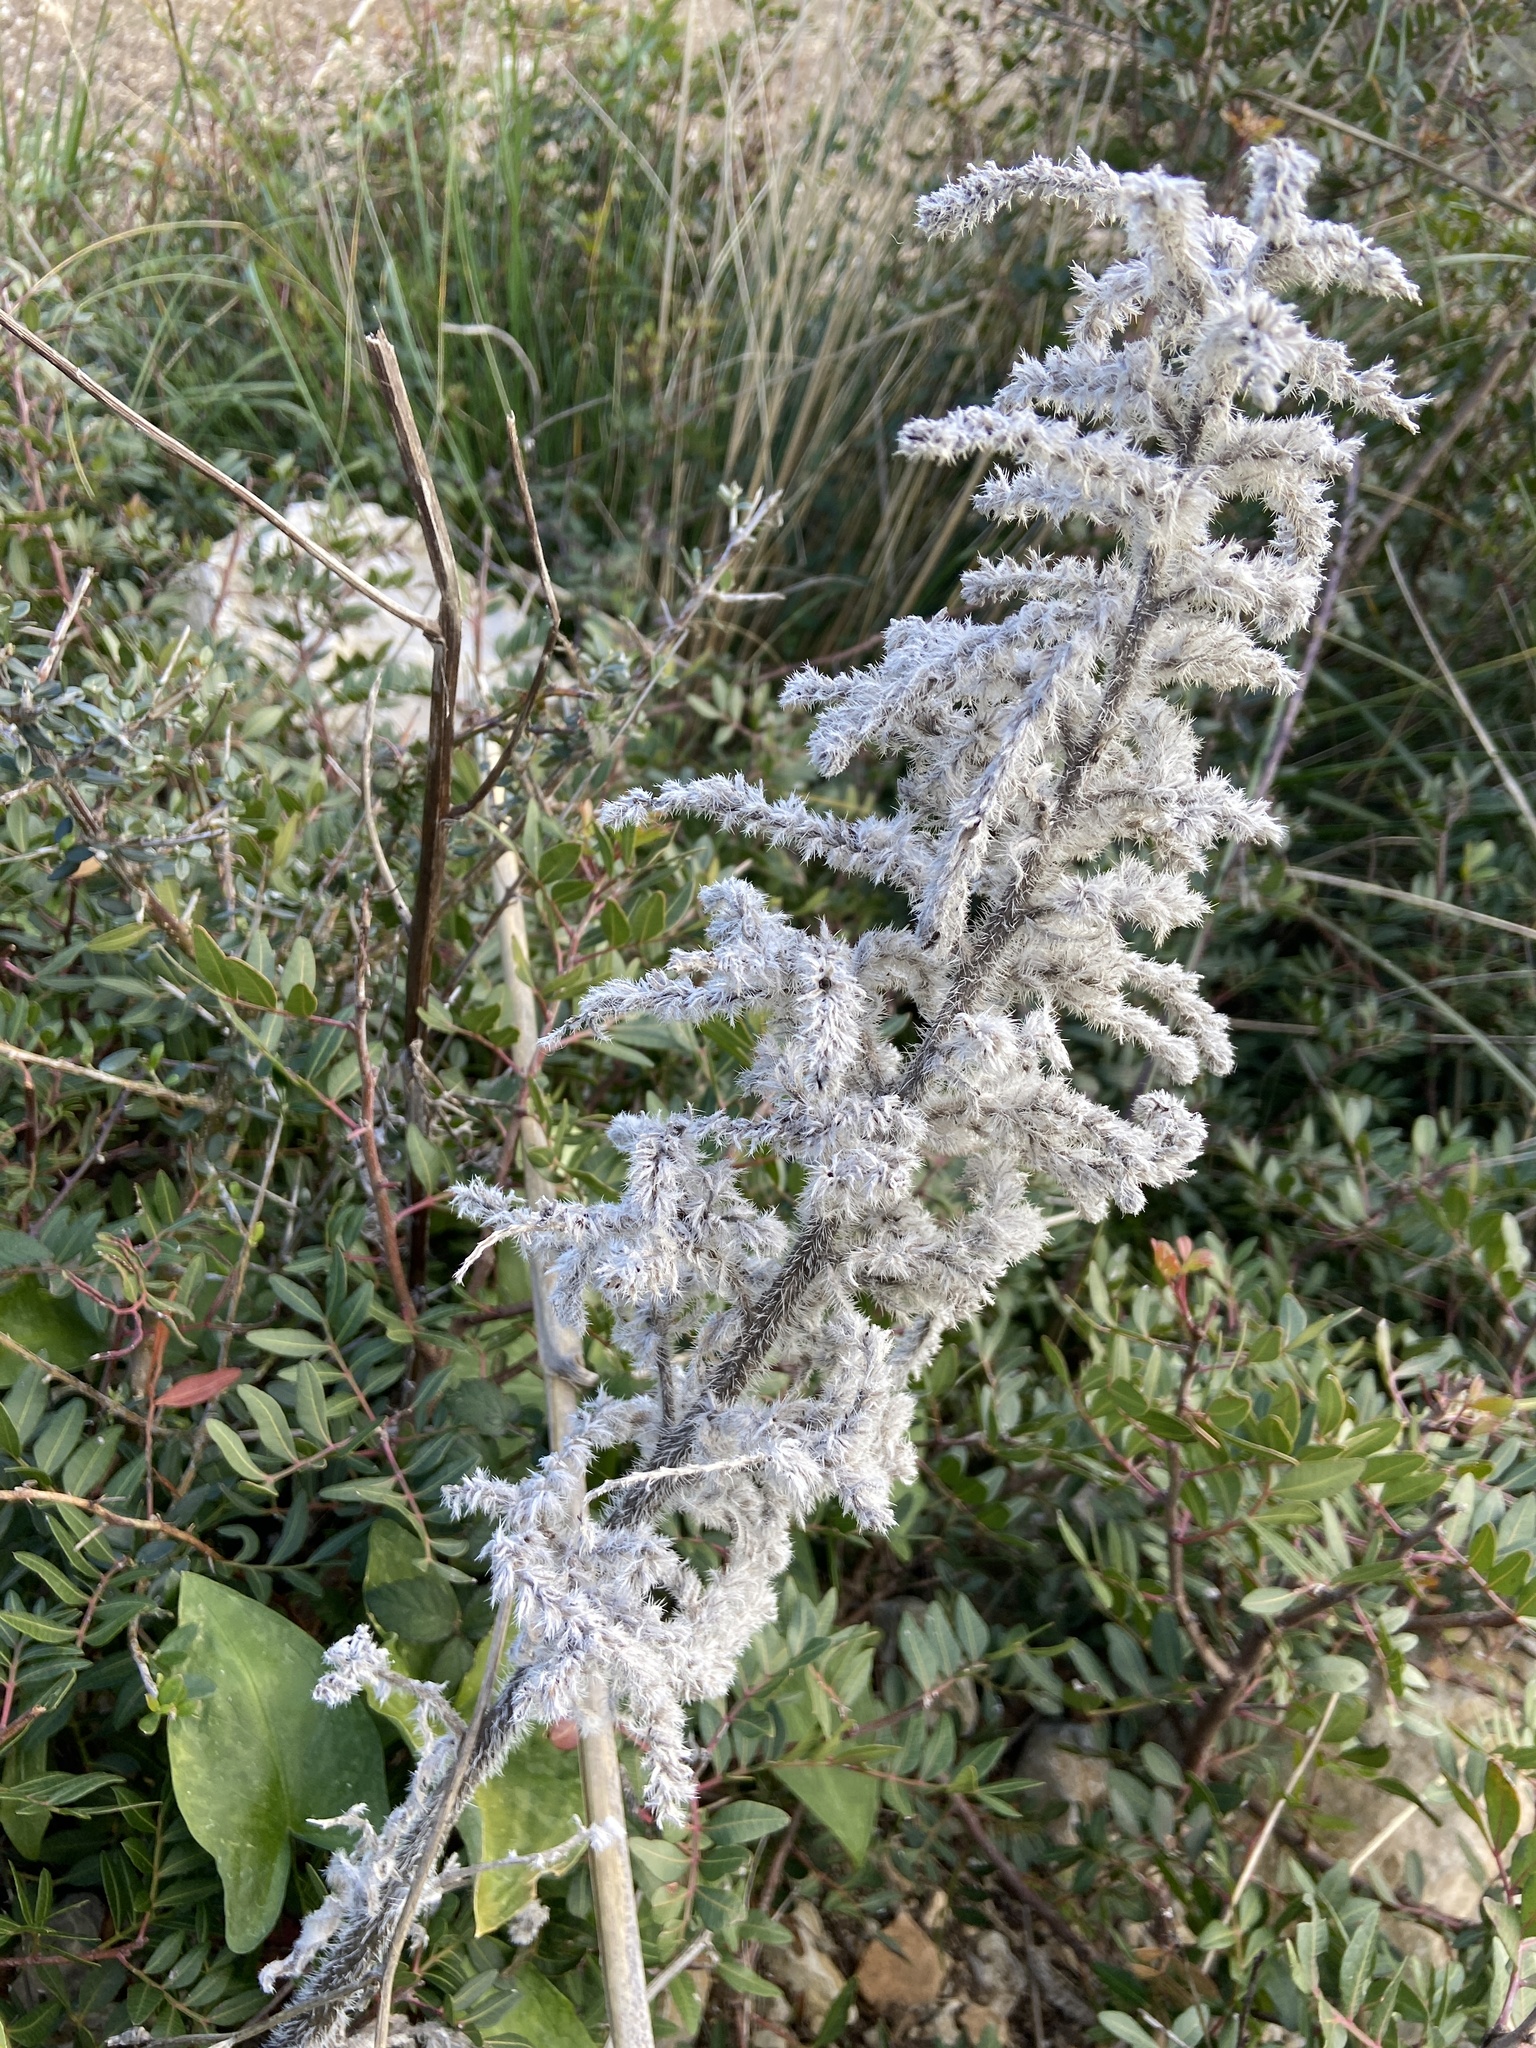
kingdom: Plantae
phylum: Tracheophyta
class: Magnoliopsida
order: Boraginales
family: Boraginaceae
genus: Echium
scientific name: Echium italicum
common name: Italian viper's bugloss
